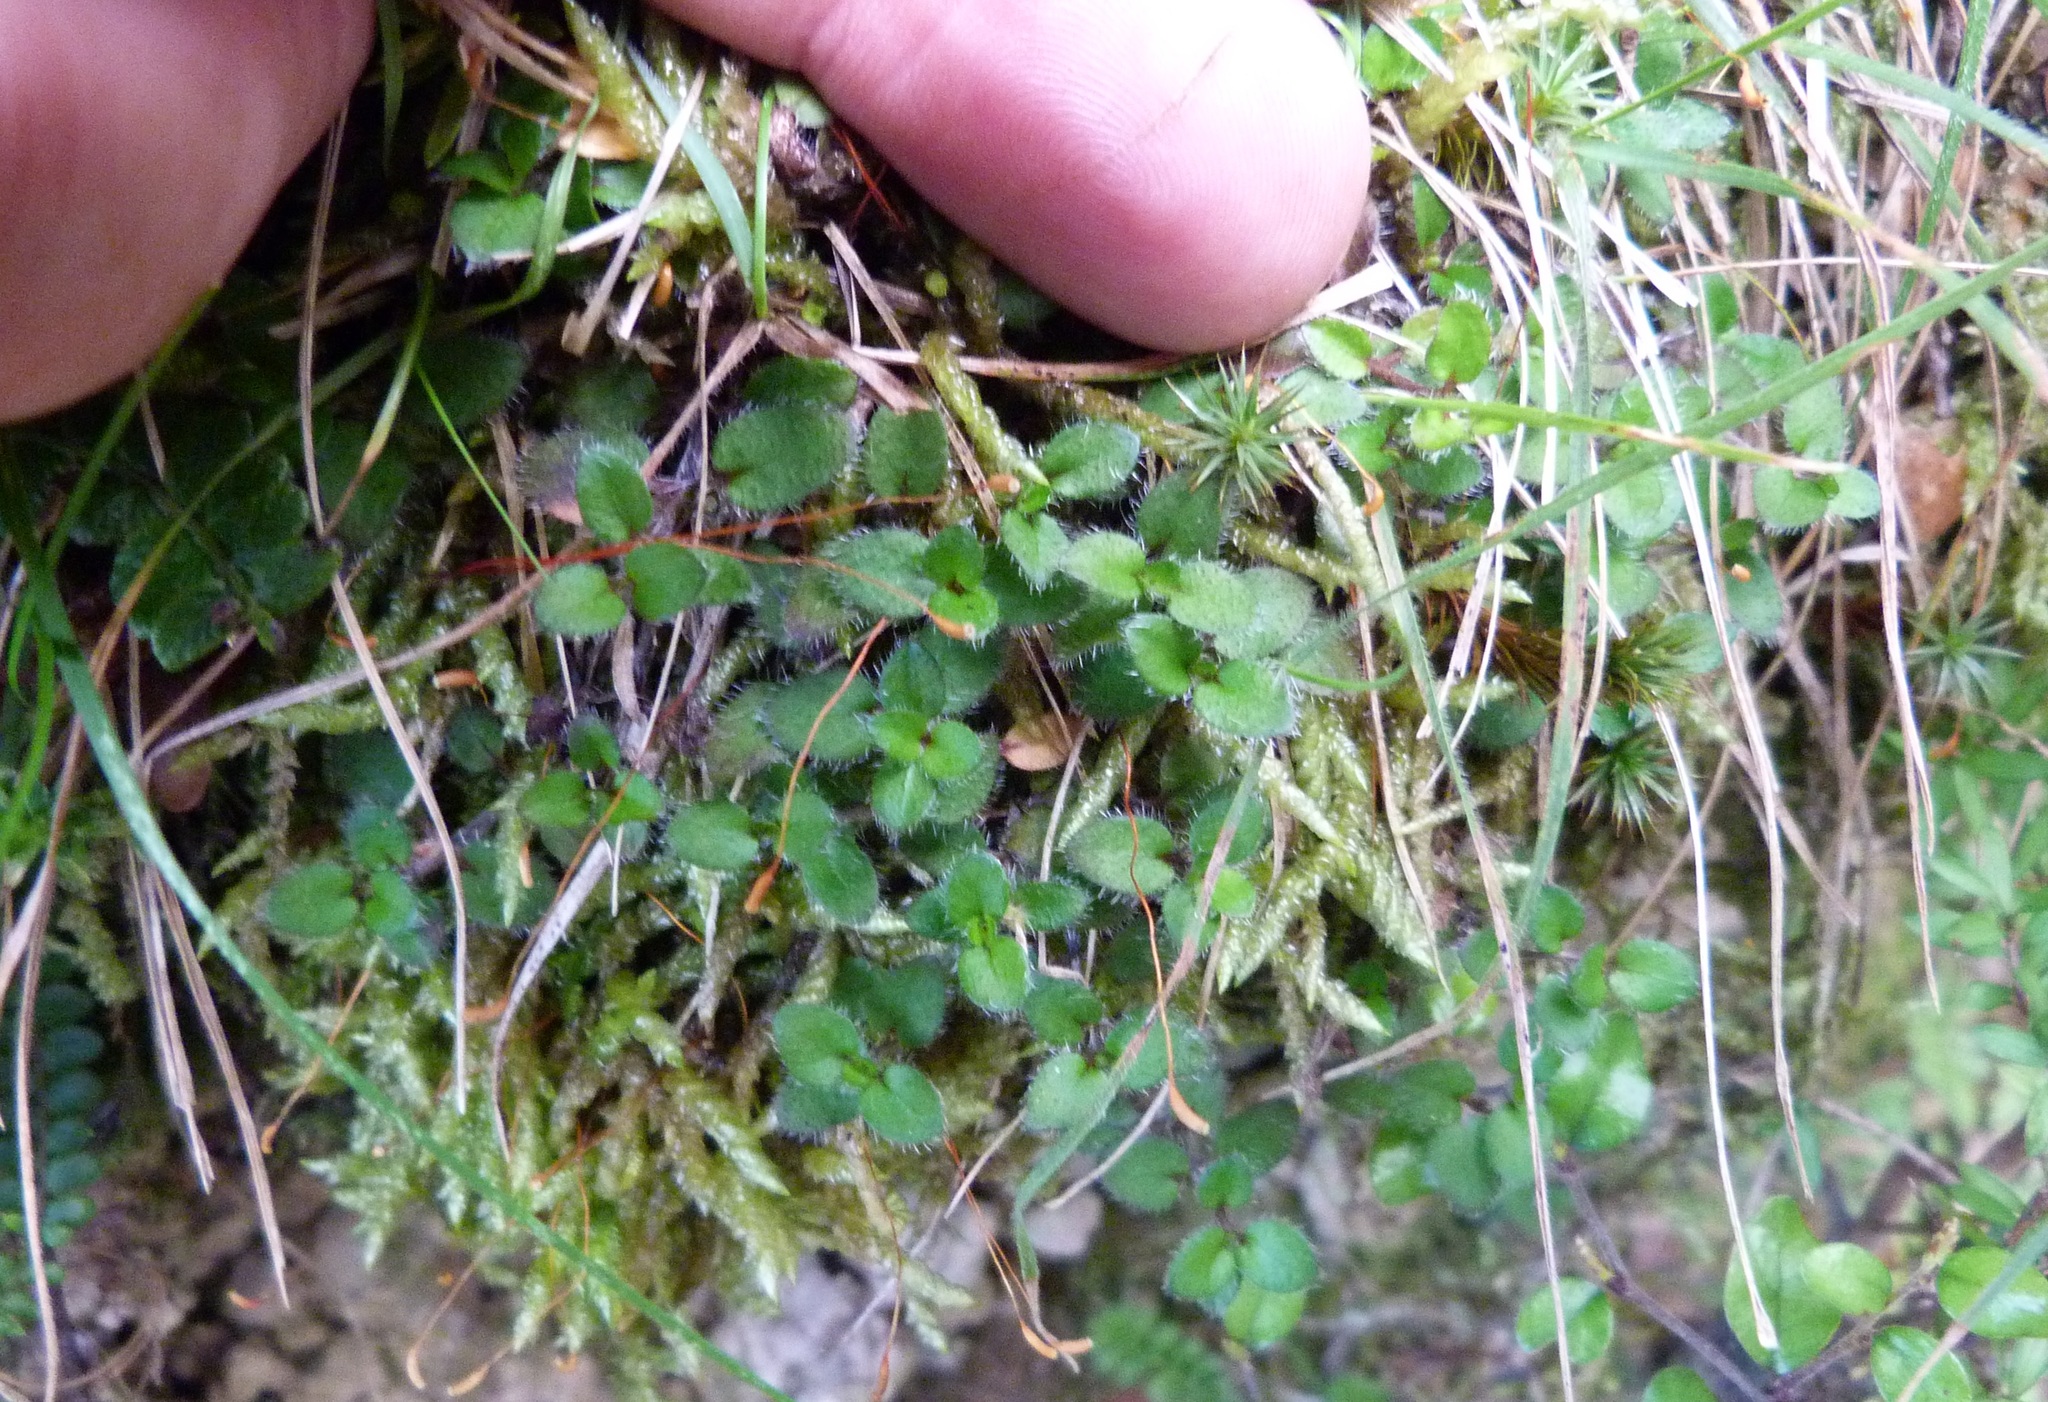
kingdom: Plantae
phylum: Tracheophyta
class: Magnoliopsida
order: Gentianales
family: Rubiaceae
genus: Leptostigma
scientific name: Leptostigma setulosum
